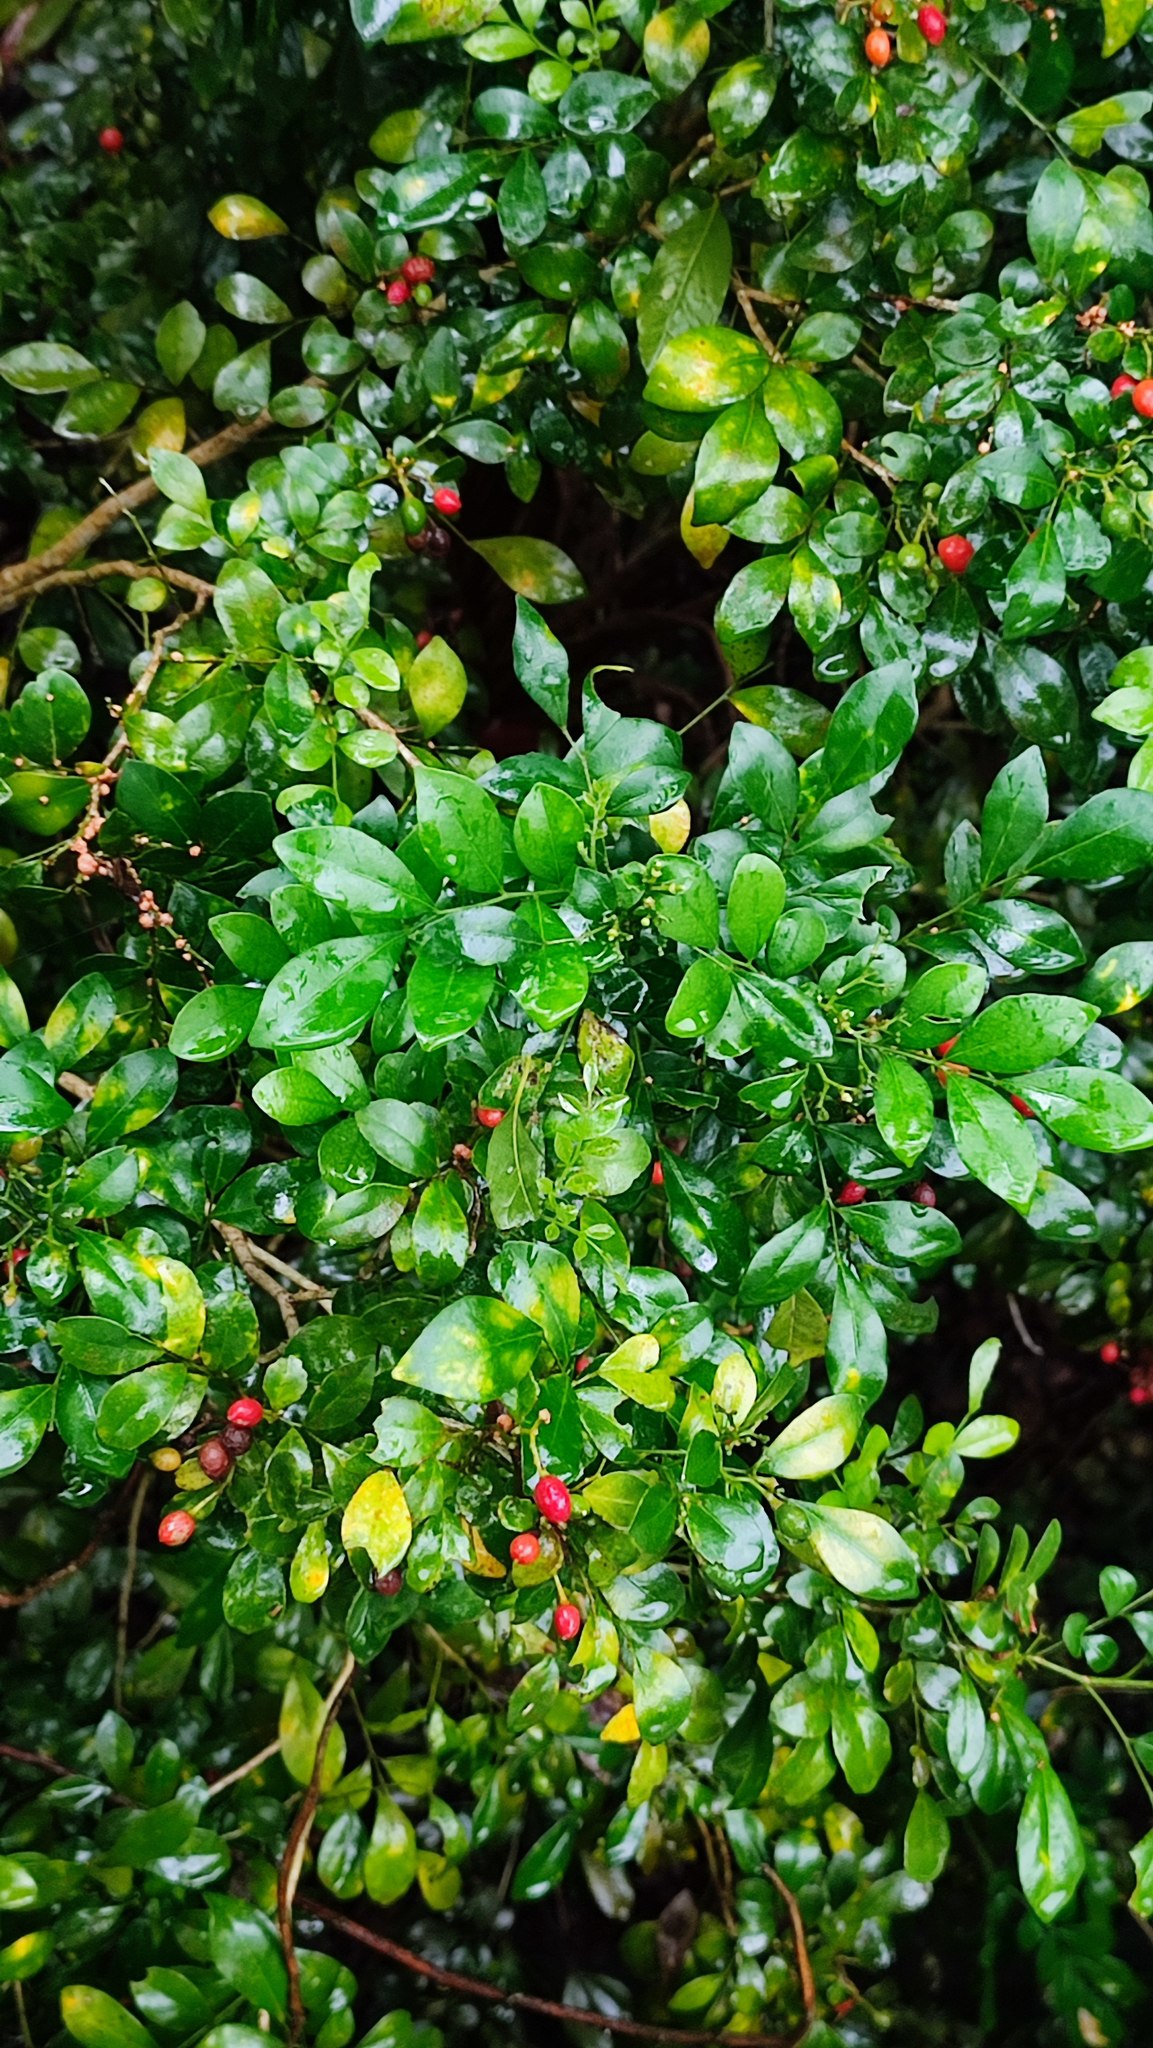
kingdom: Plantae
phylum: Tracheophyta
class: Magnoliopsida
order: Sapindales
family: Rutaceae
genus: Murraya
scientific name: Murraya paniculata
